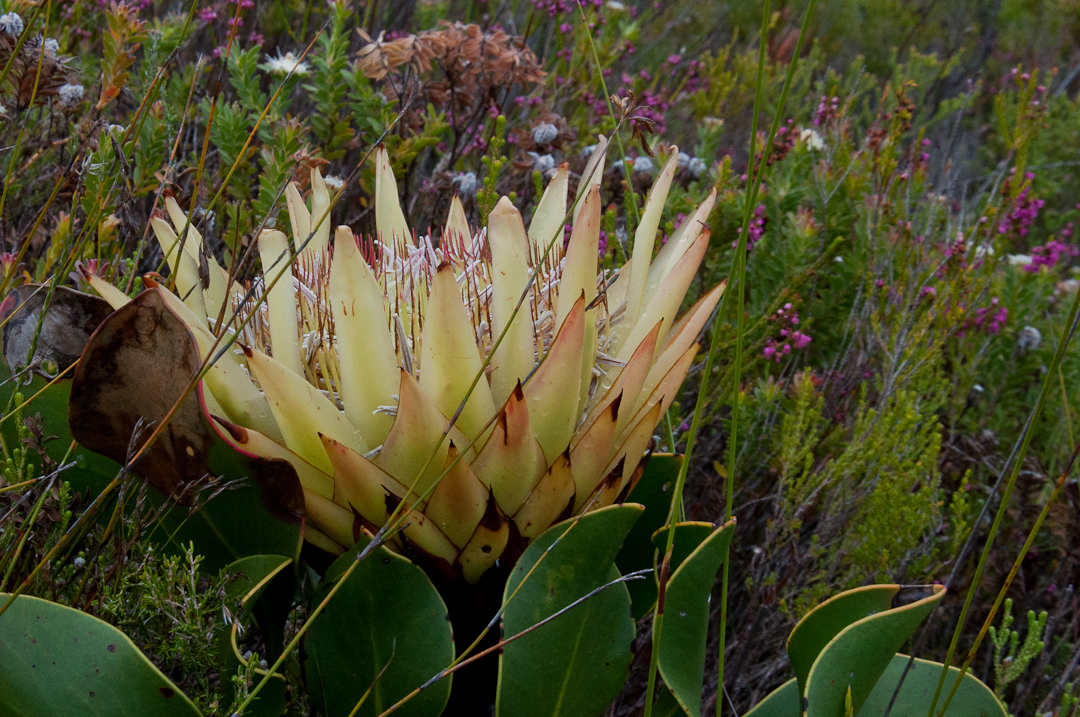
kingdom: Plantae
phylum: Tracheophyta
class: Magnoliopsida
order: Proteales
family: Proteaceae
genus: Protea
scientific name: Protea cynaroides
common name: King protea
